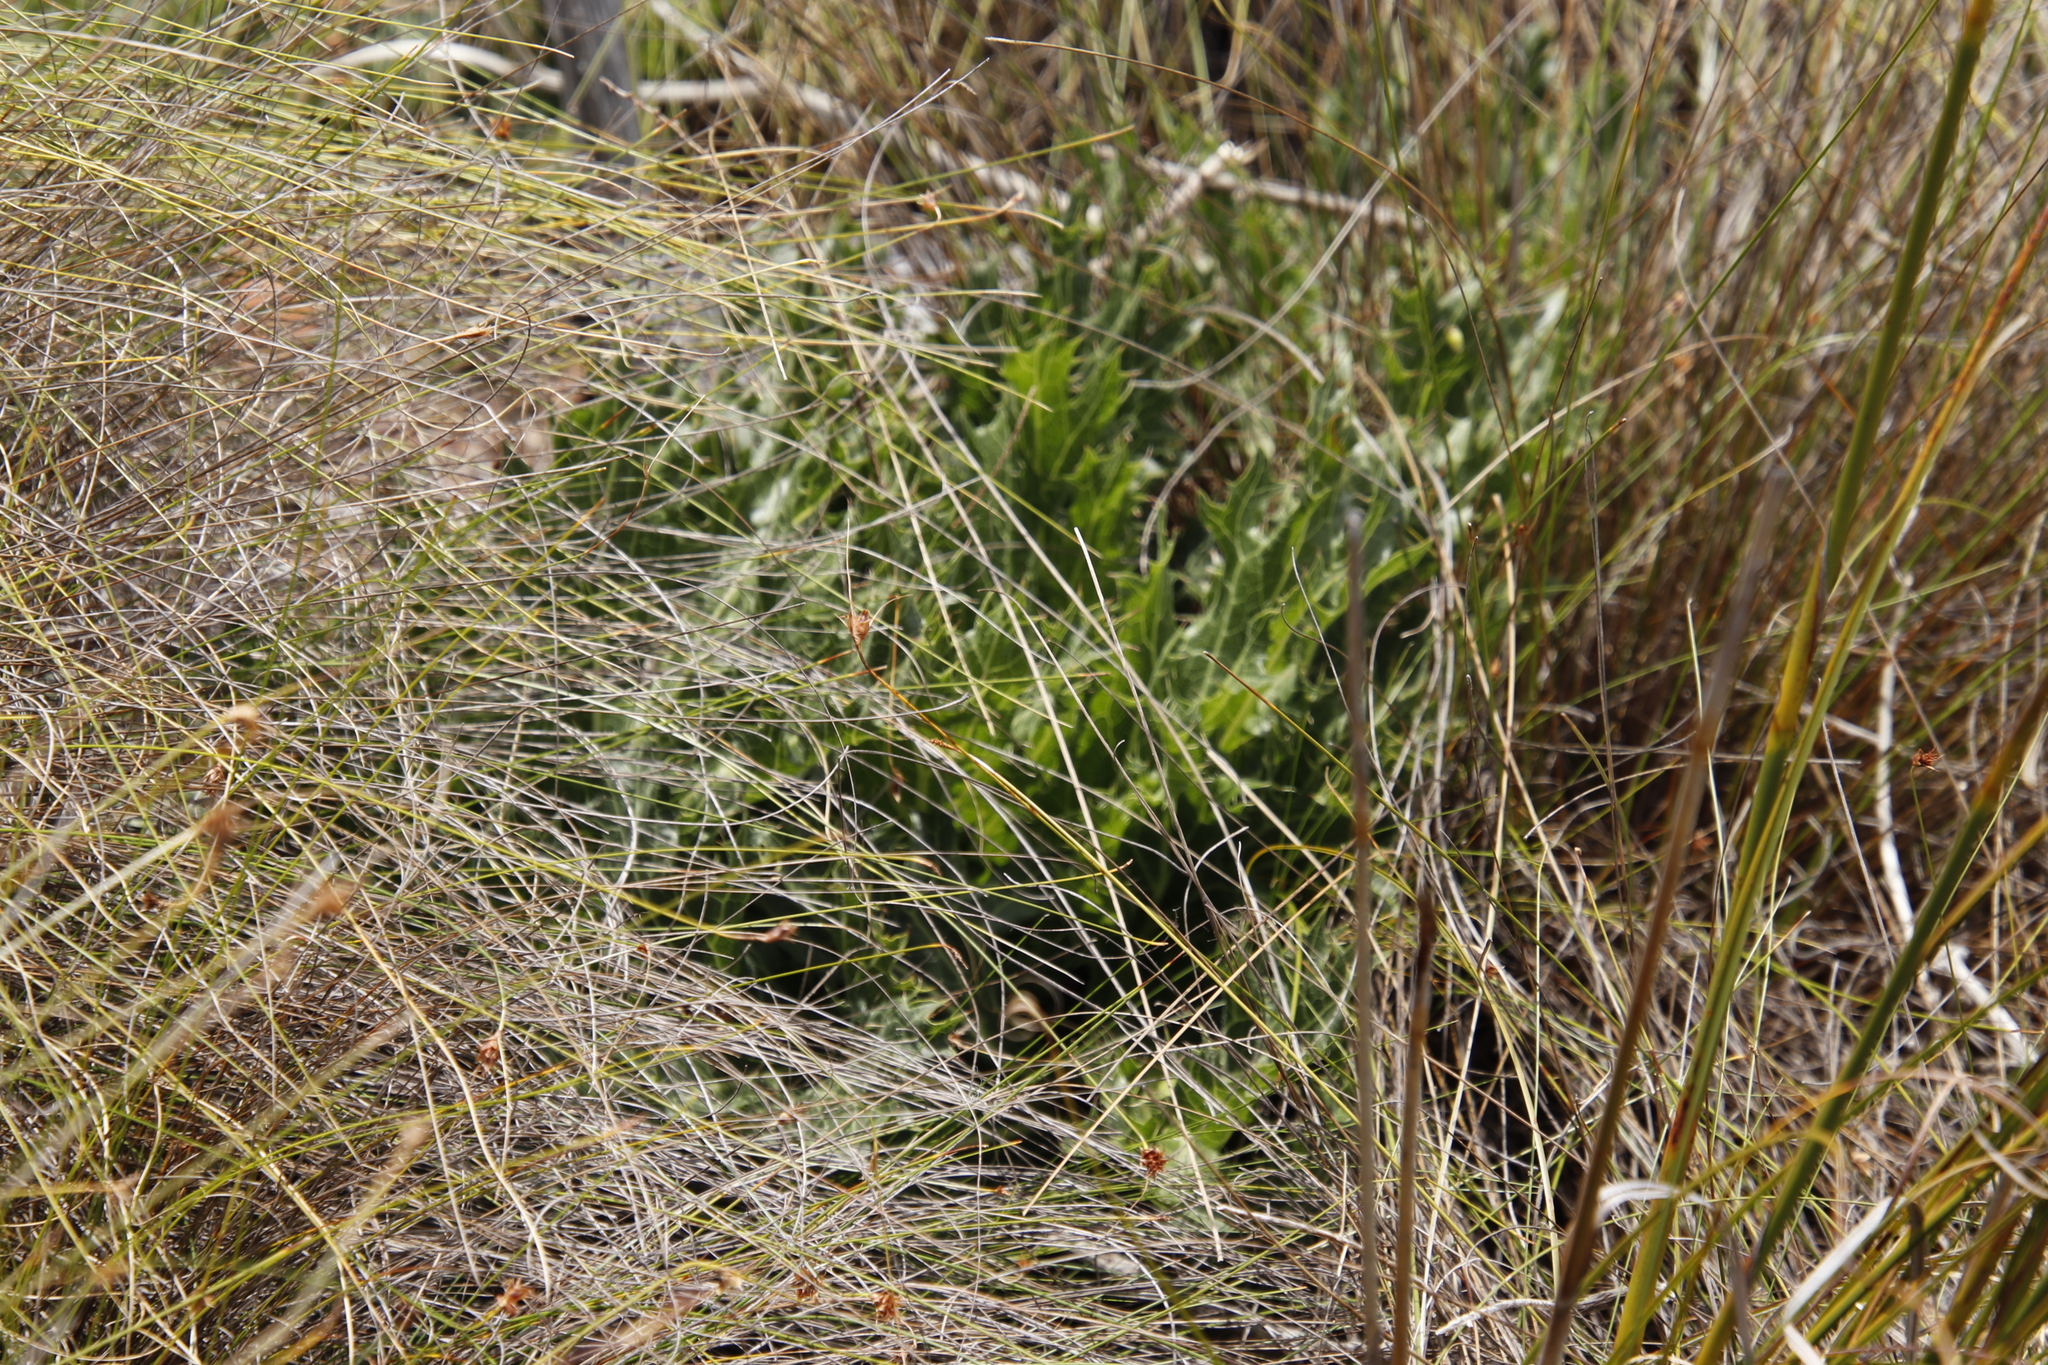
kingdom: Plantae
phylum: Tracheophyta
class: Magnoliopsida
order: Apiales
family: Apiaceae
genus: Lichtensteinia
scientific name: Lichtensteinia lacera
